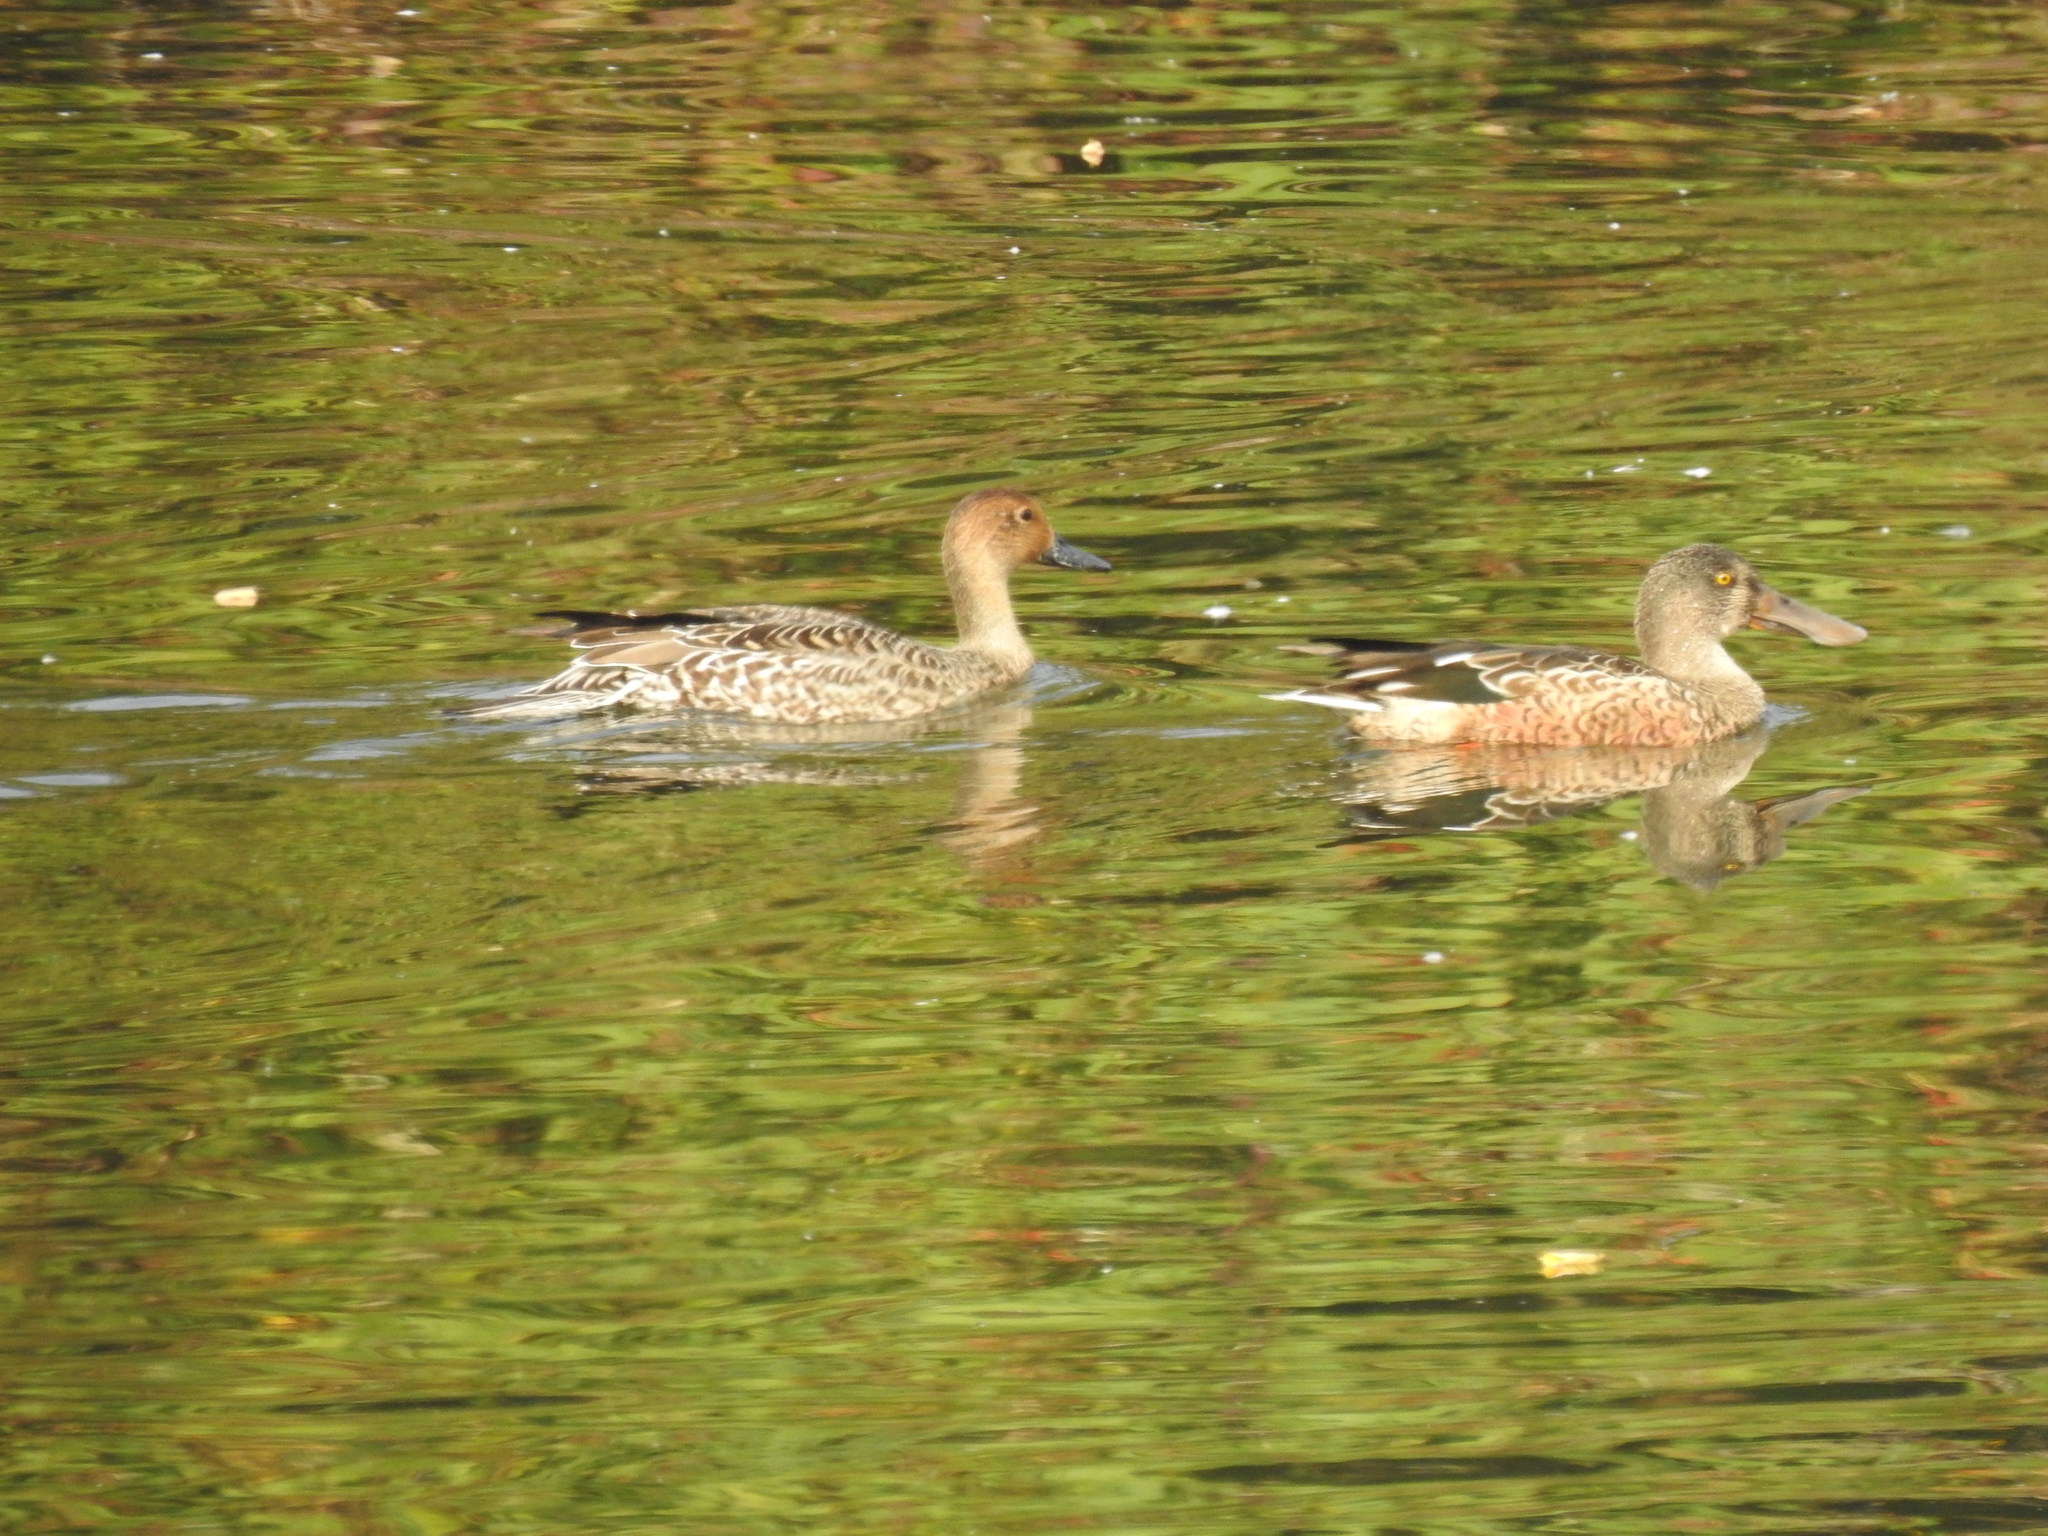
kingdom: Animalia
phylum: Chordata
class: Aves
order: Anseriformes
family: Anatidae
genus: Spatula
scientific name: Spatula clypeata
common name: Northern shoveler
